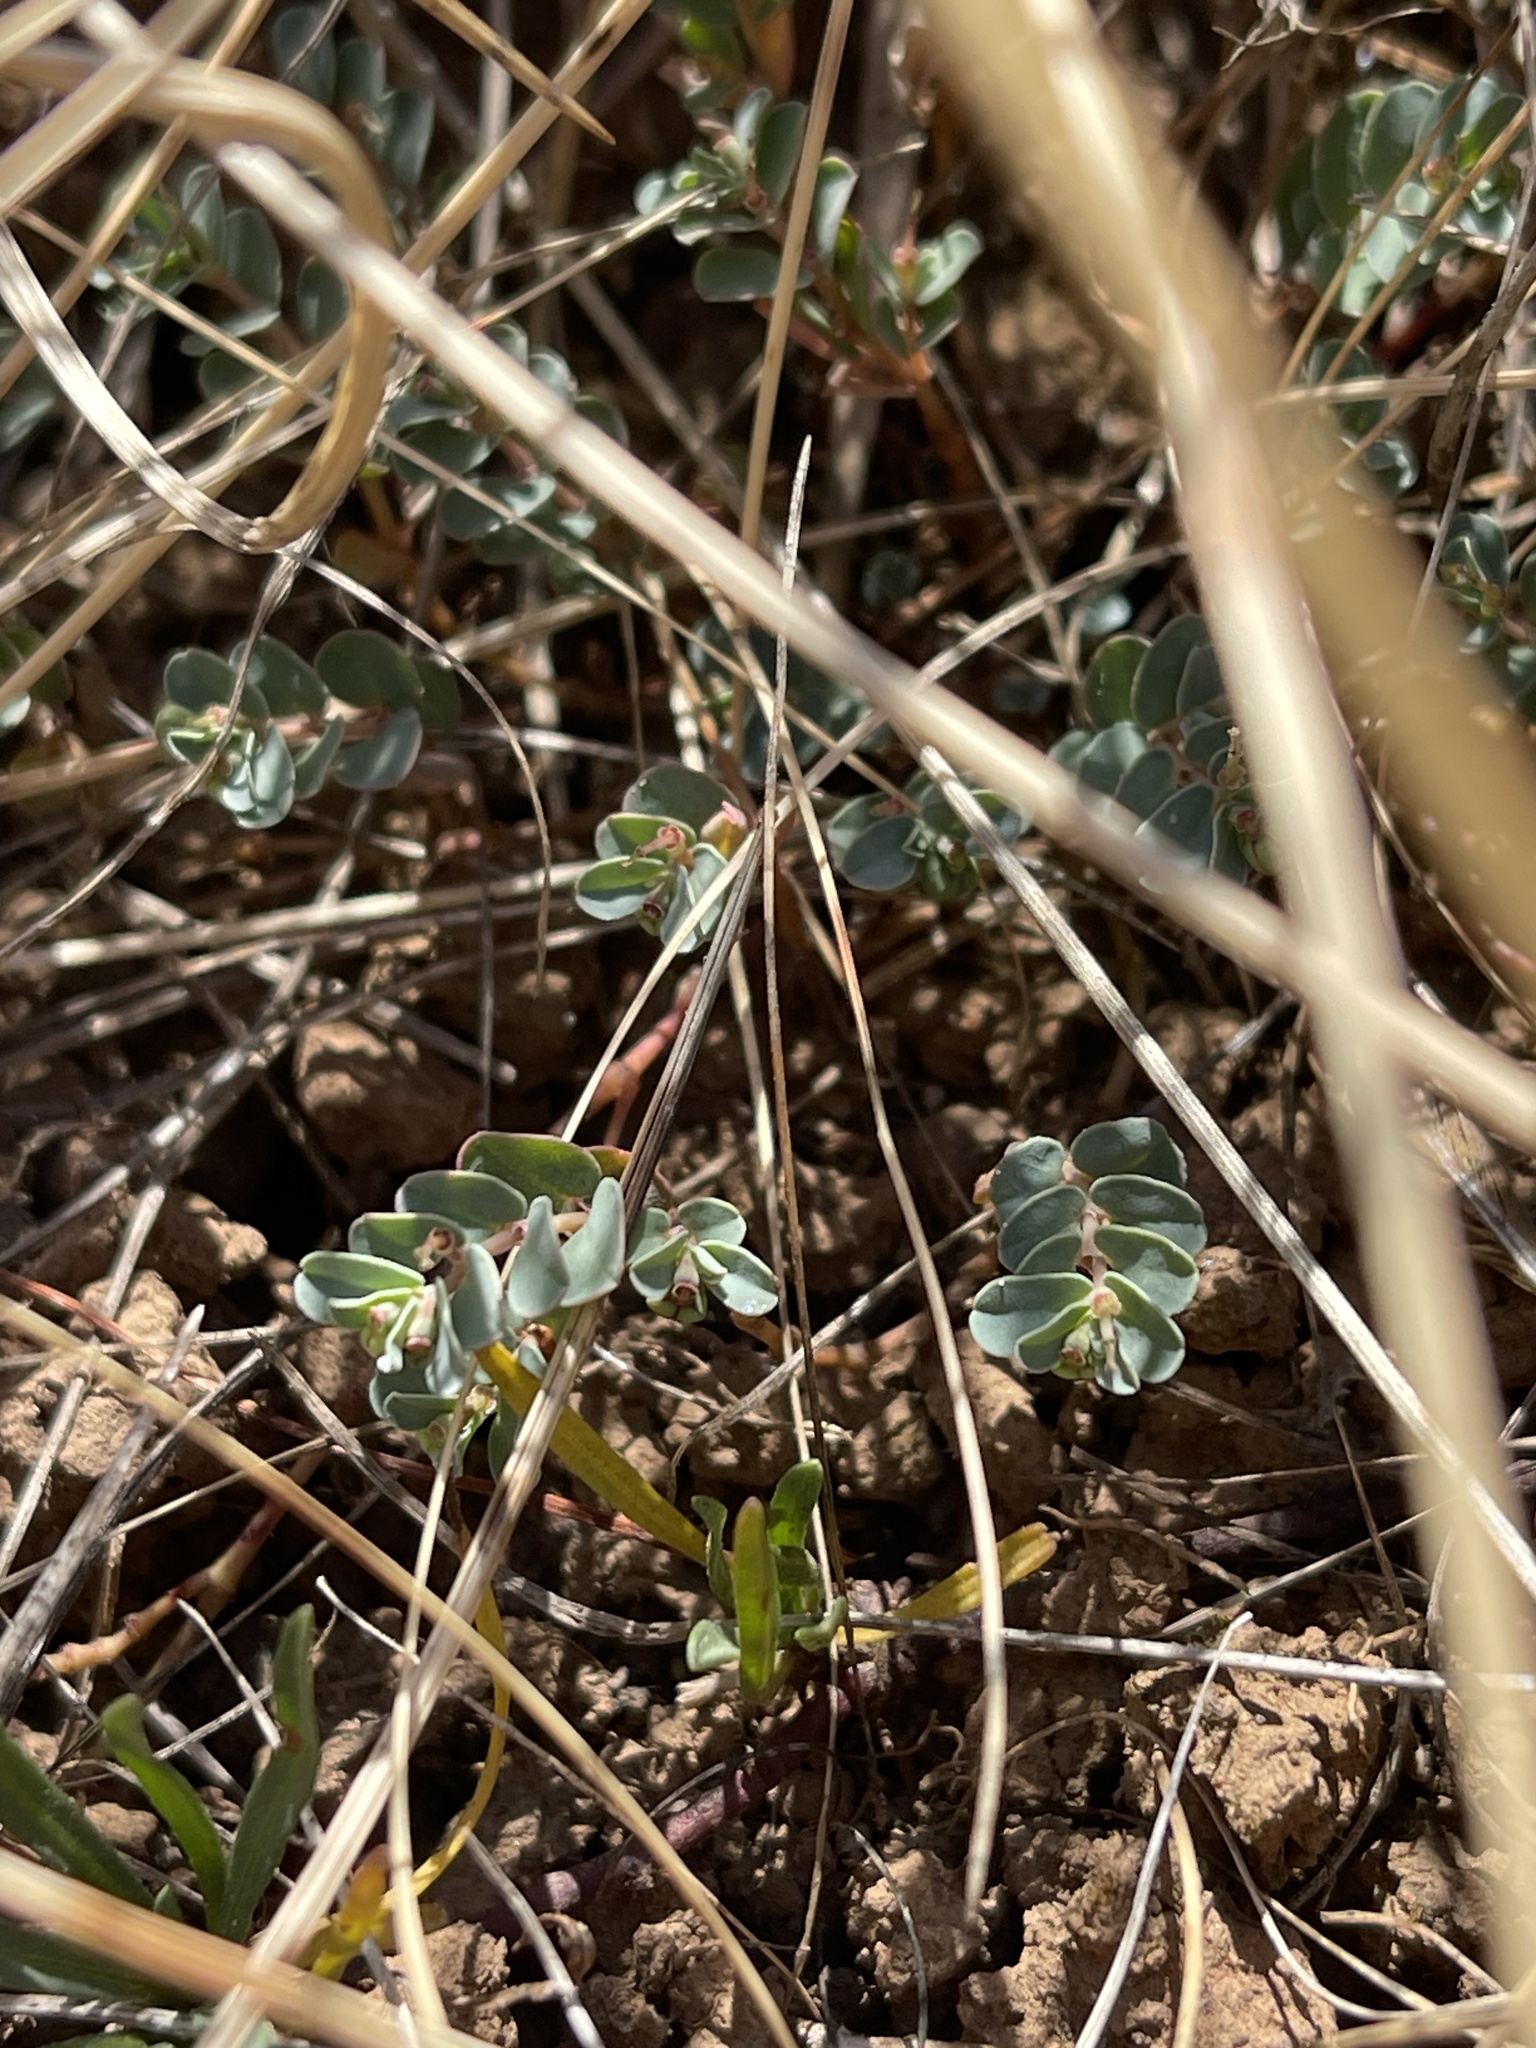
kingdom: Plantae
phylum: Tracheophyta
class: Magnoliopsida
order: Malpighiales
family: Euphorbiaceae
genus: Euphorbia
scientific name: Euphorbia dallachyana
